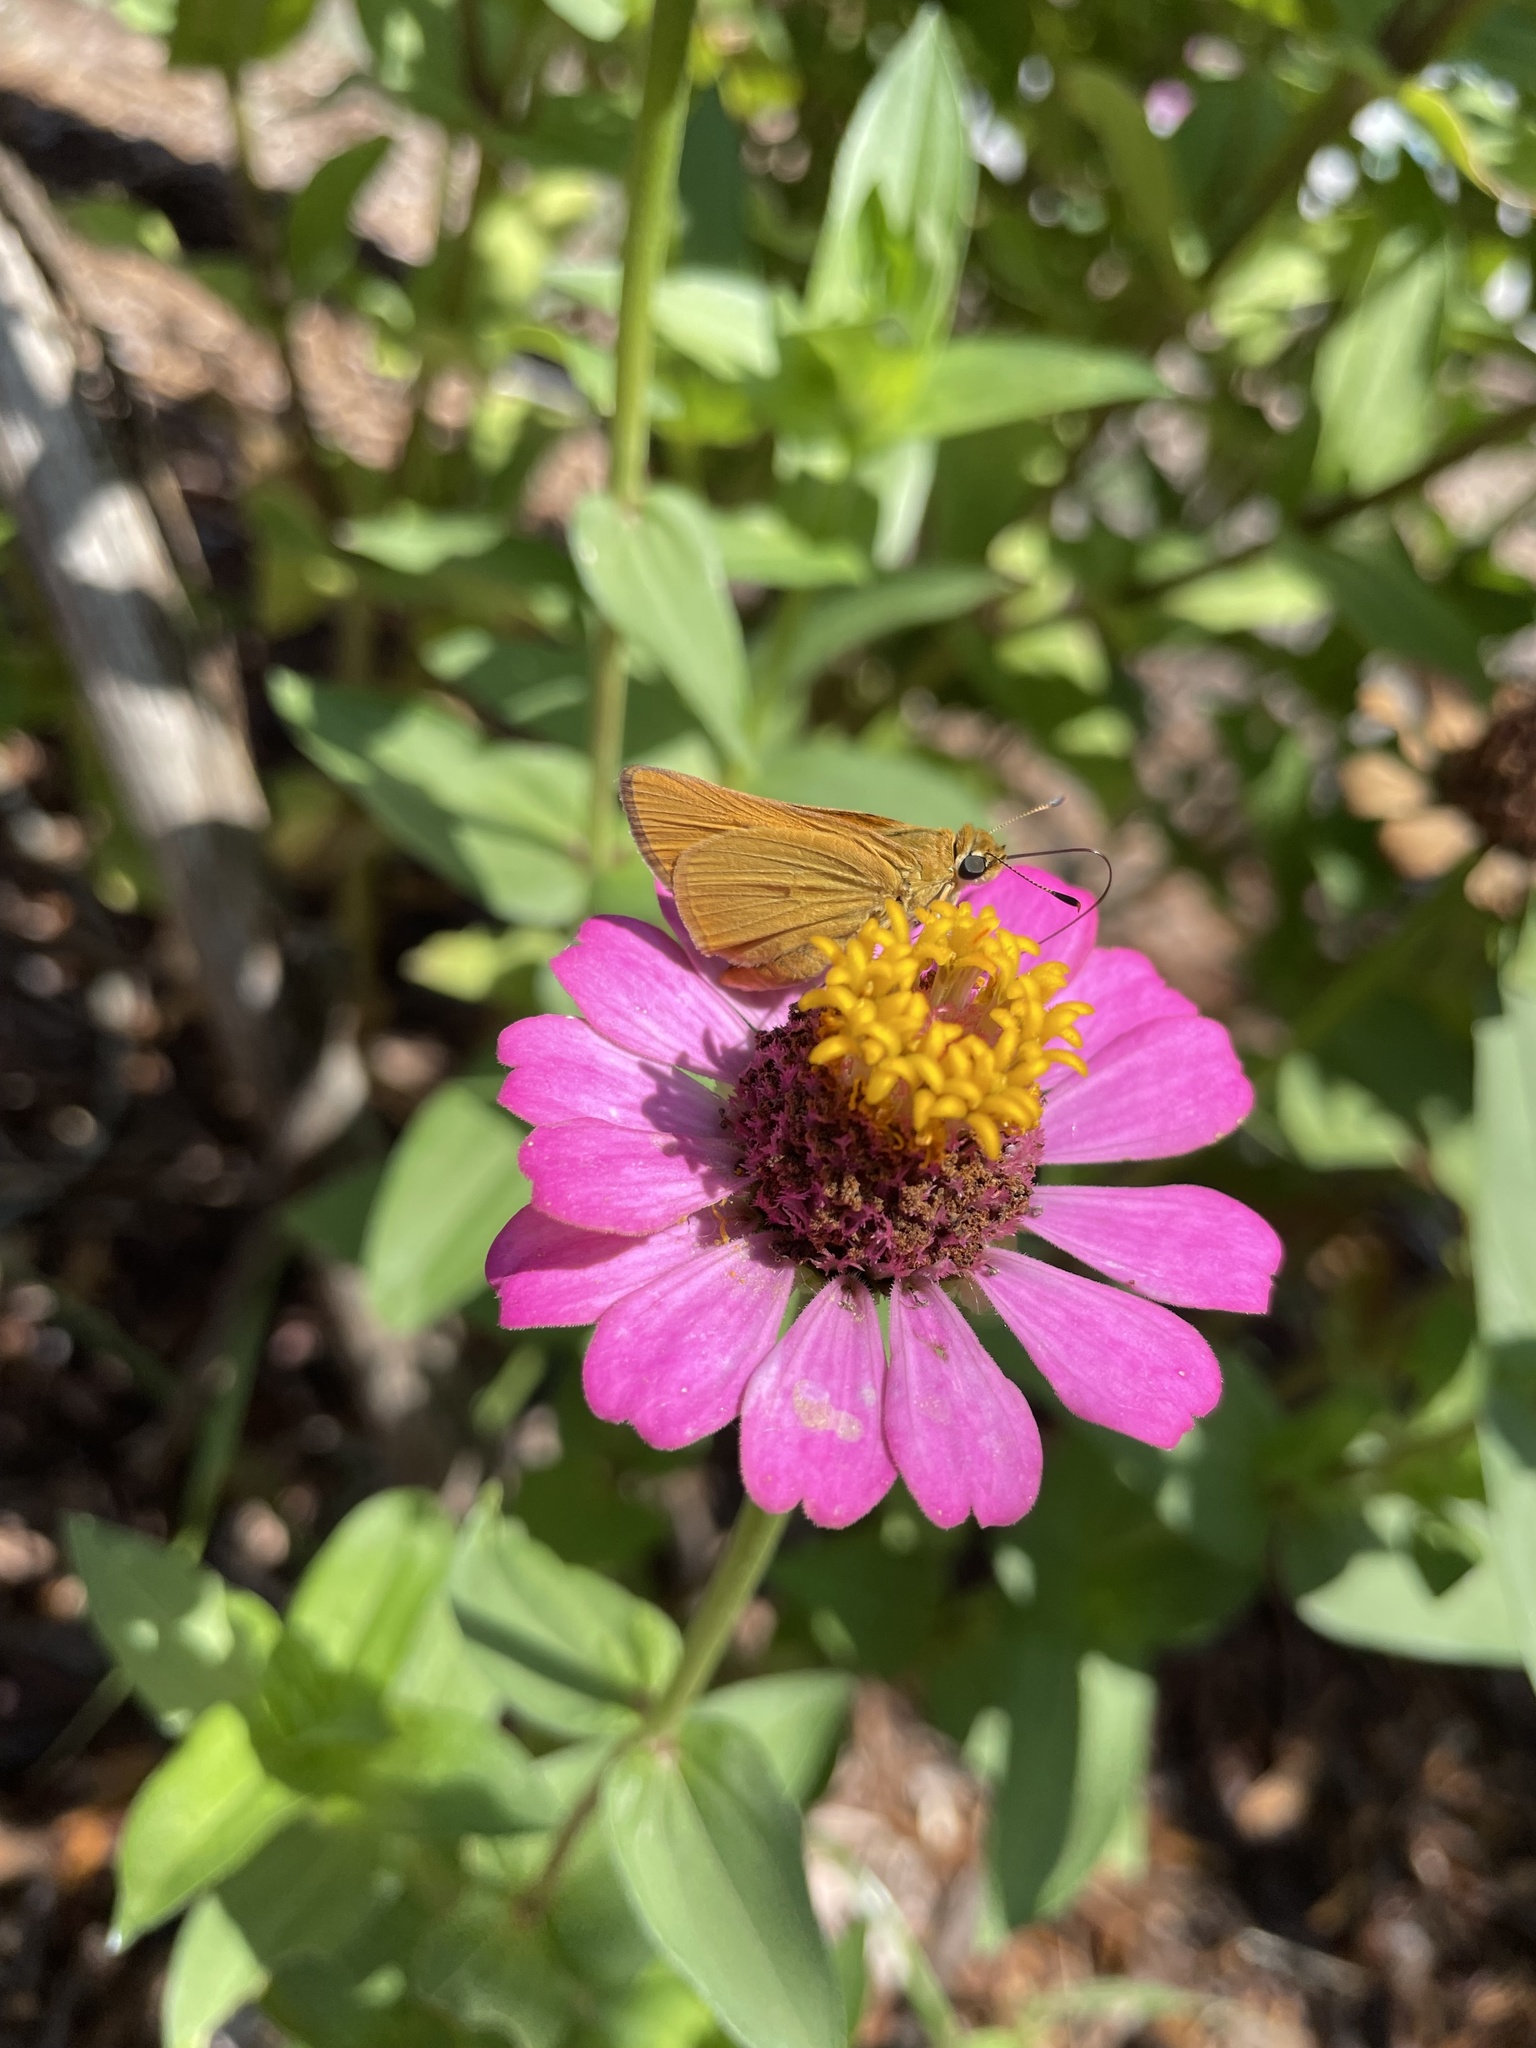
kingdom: Animalia
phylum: Arthropoda
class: Insecta
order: Lepidoptera
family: Hesperiidae
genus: Atrytone
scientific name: Atrytone delaware
